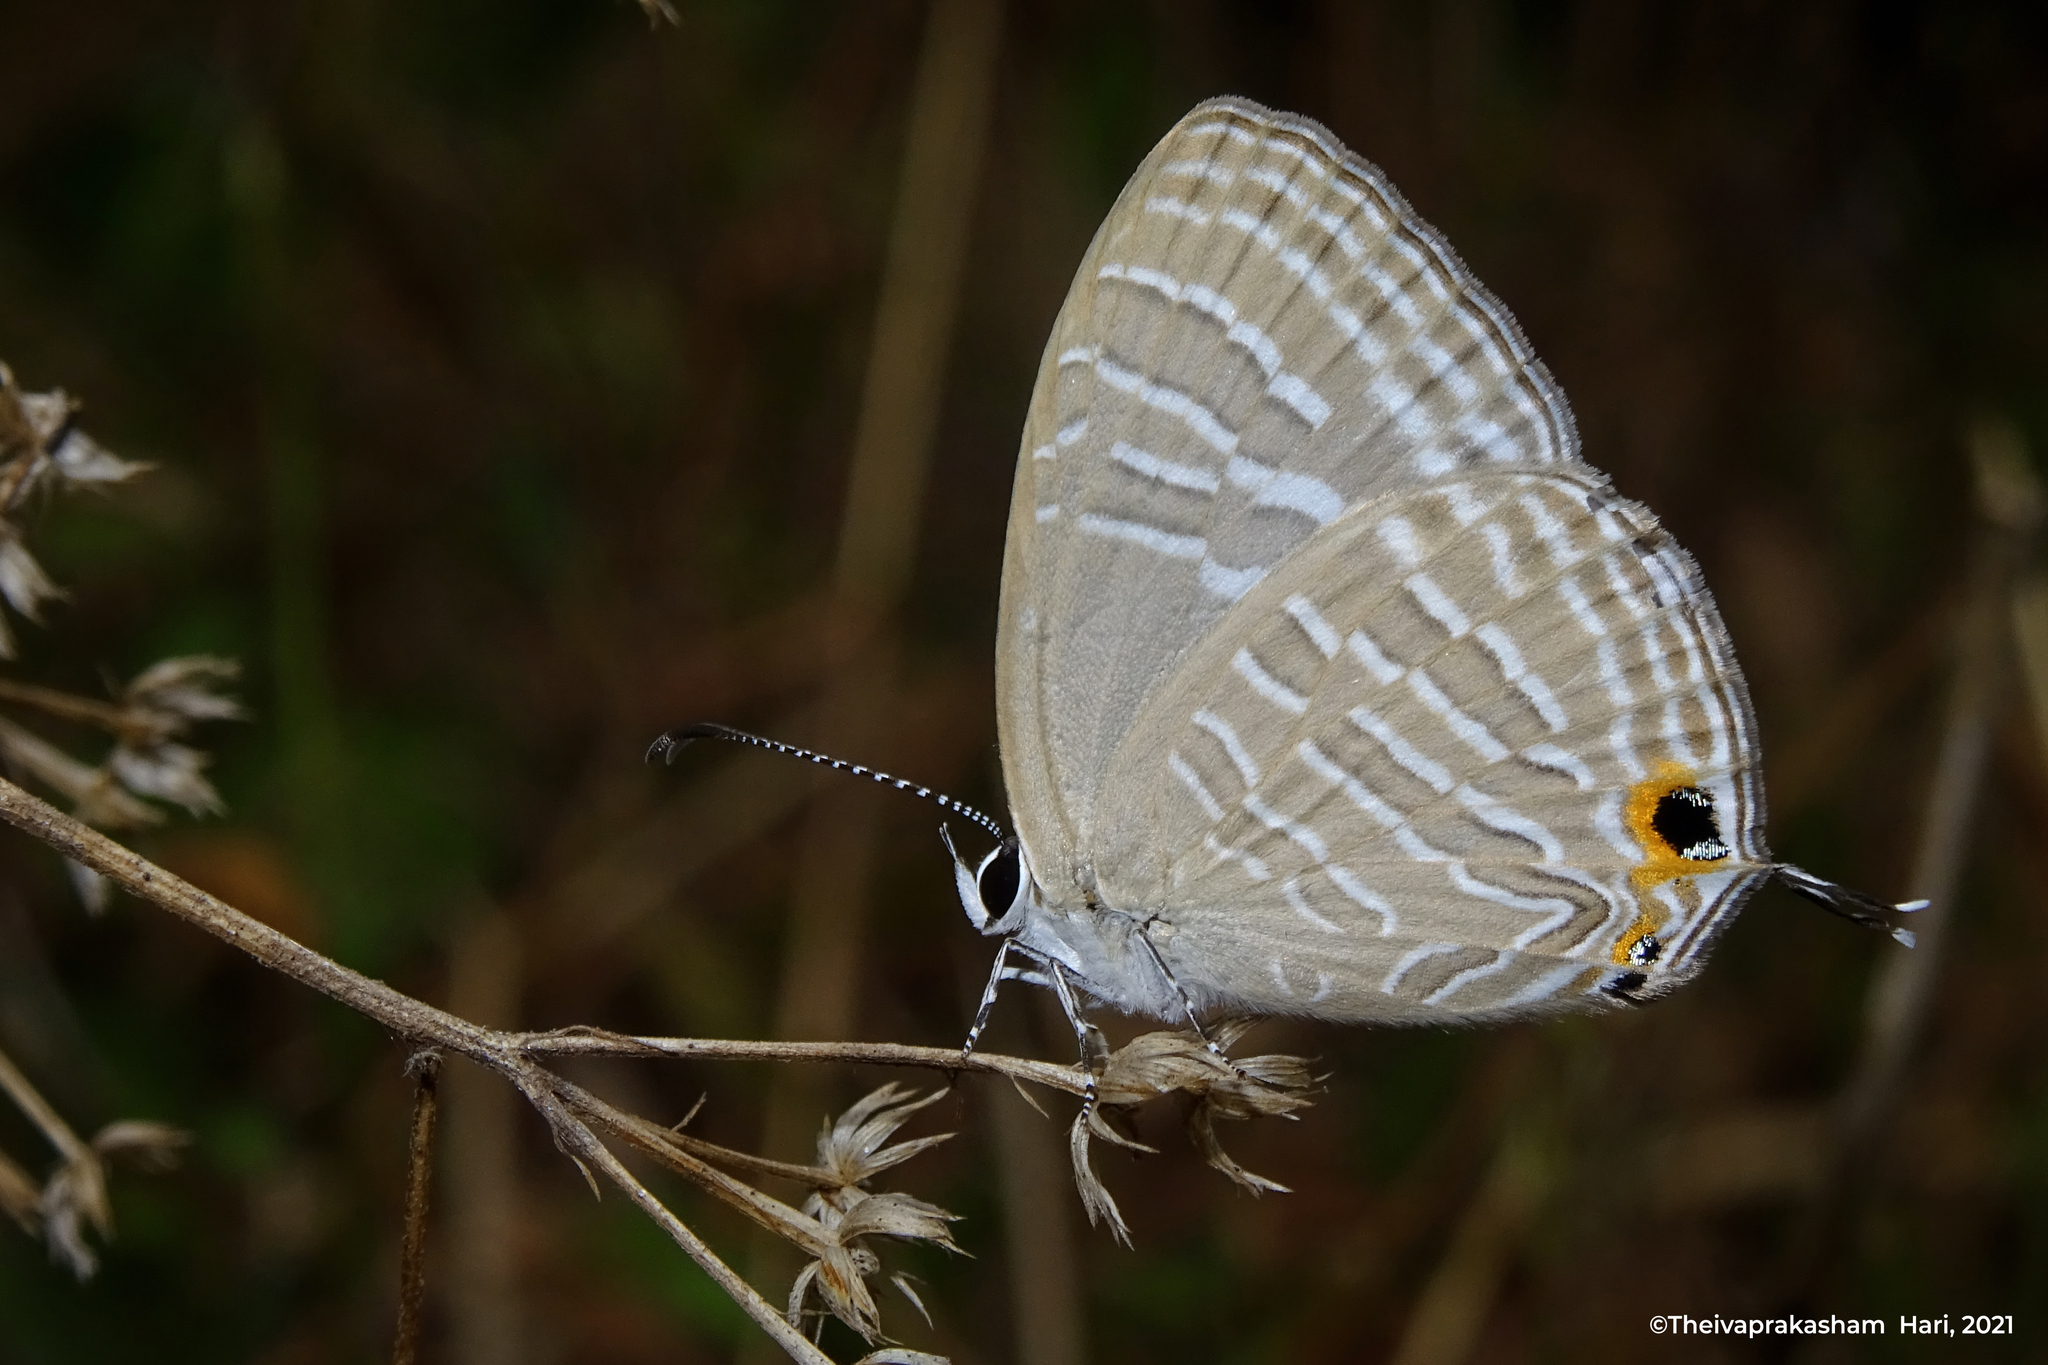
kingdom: Animalia
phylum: Arthropoda
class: Insecta
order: Lepidoptera
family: Lycaenidae
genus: Jamides
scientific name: Jamides celeno
